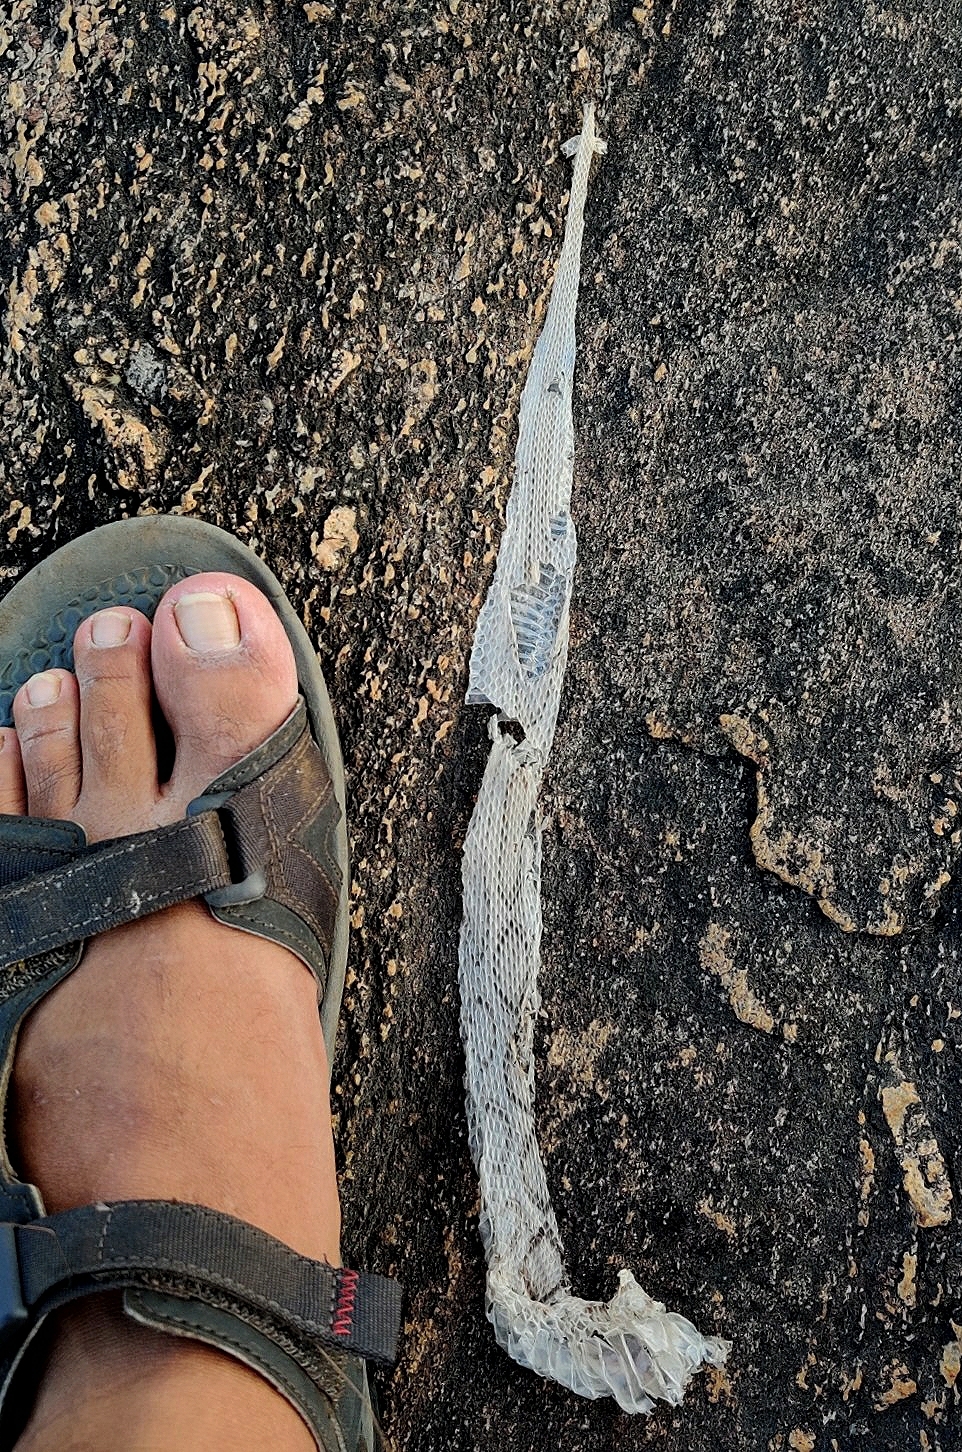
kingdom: Animalia
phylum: Chordata
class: Squamata
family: Viperidae
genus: Daboia
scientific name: Daboia russelii
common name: Western russel’s viper
